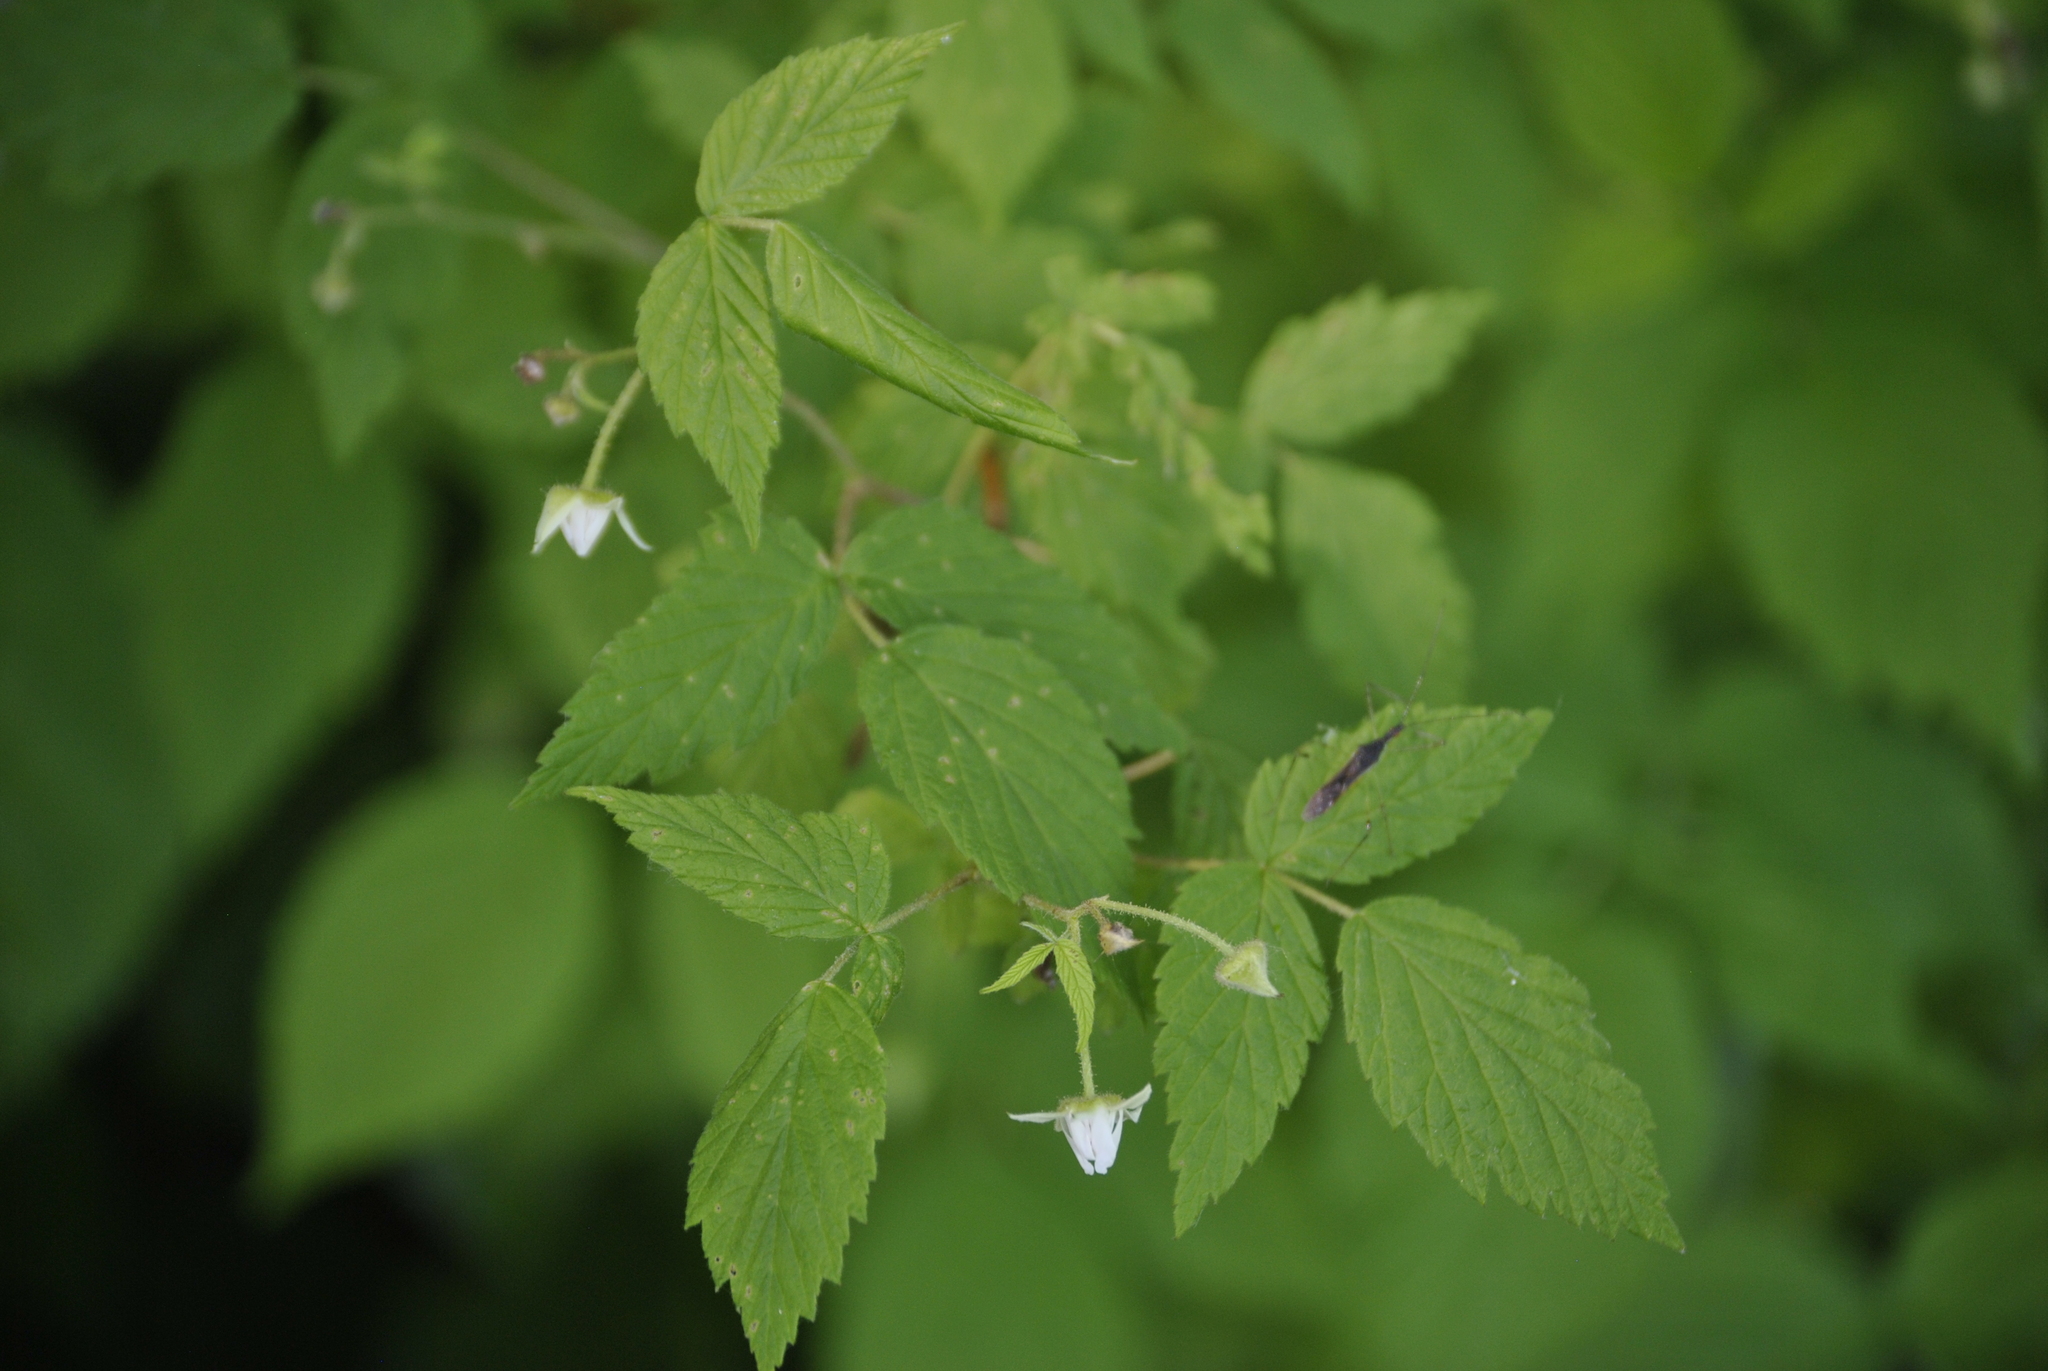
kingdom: Plantae
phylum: Tracheophyta
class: Magnoliopsida
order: Rosales
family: Rosaceae
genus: Rubus
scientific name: Rubus idaeus
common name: Raspberry
